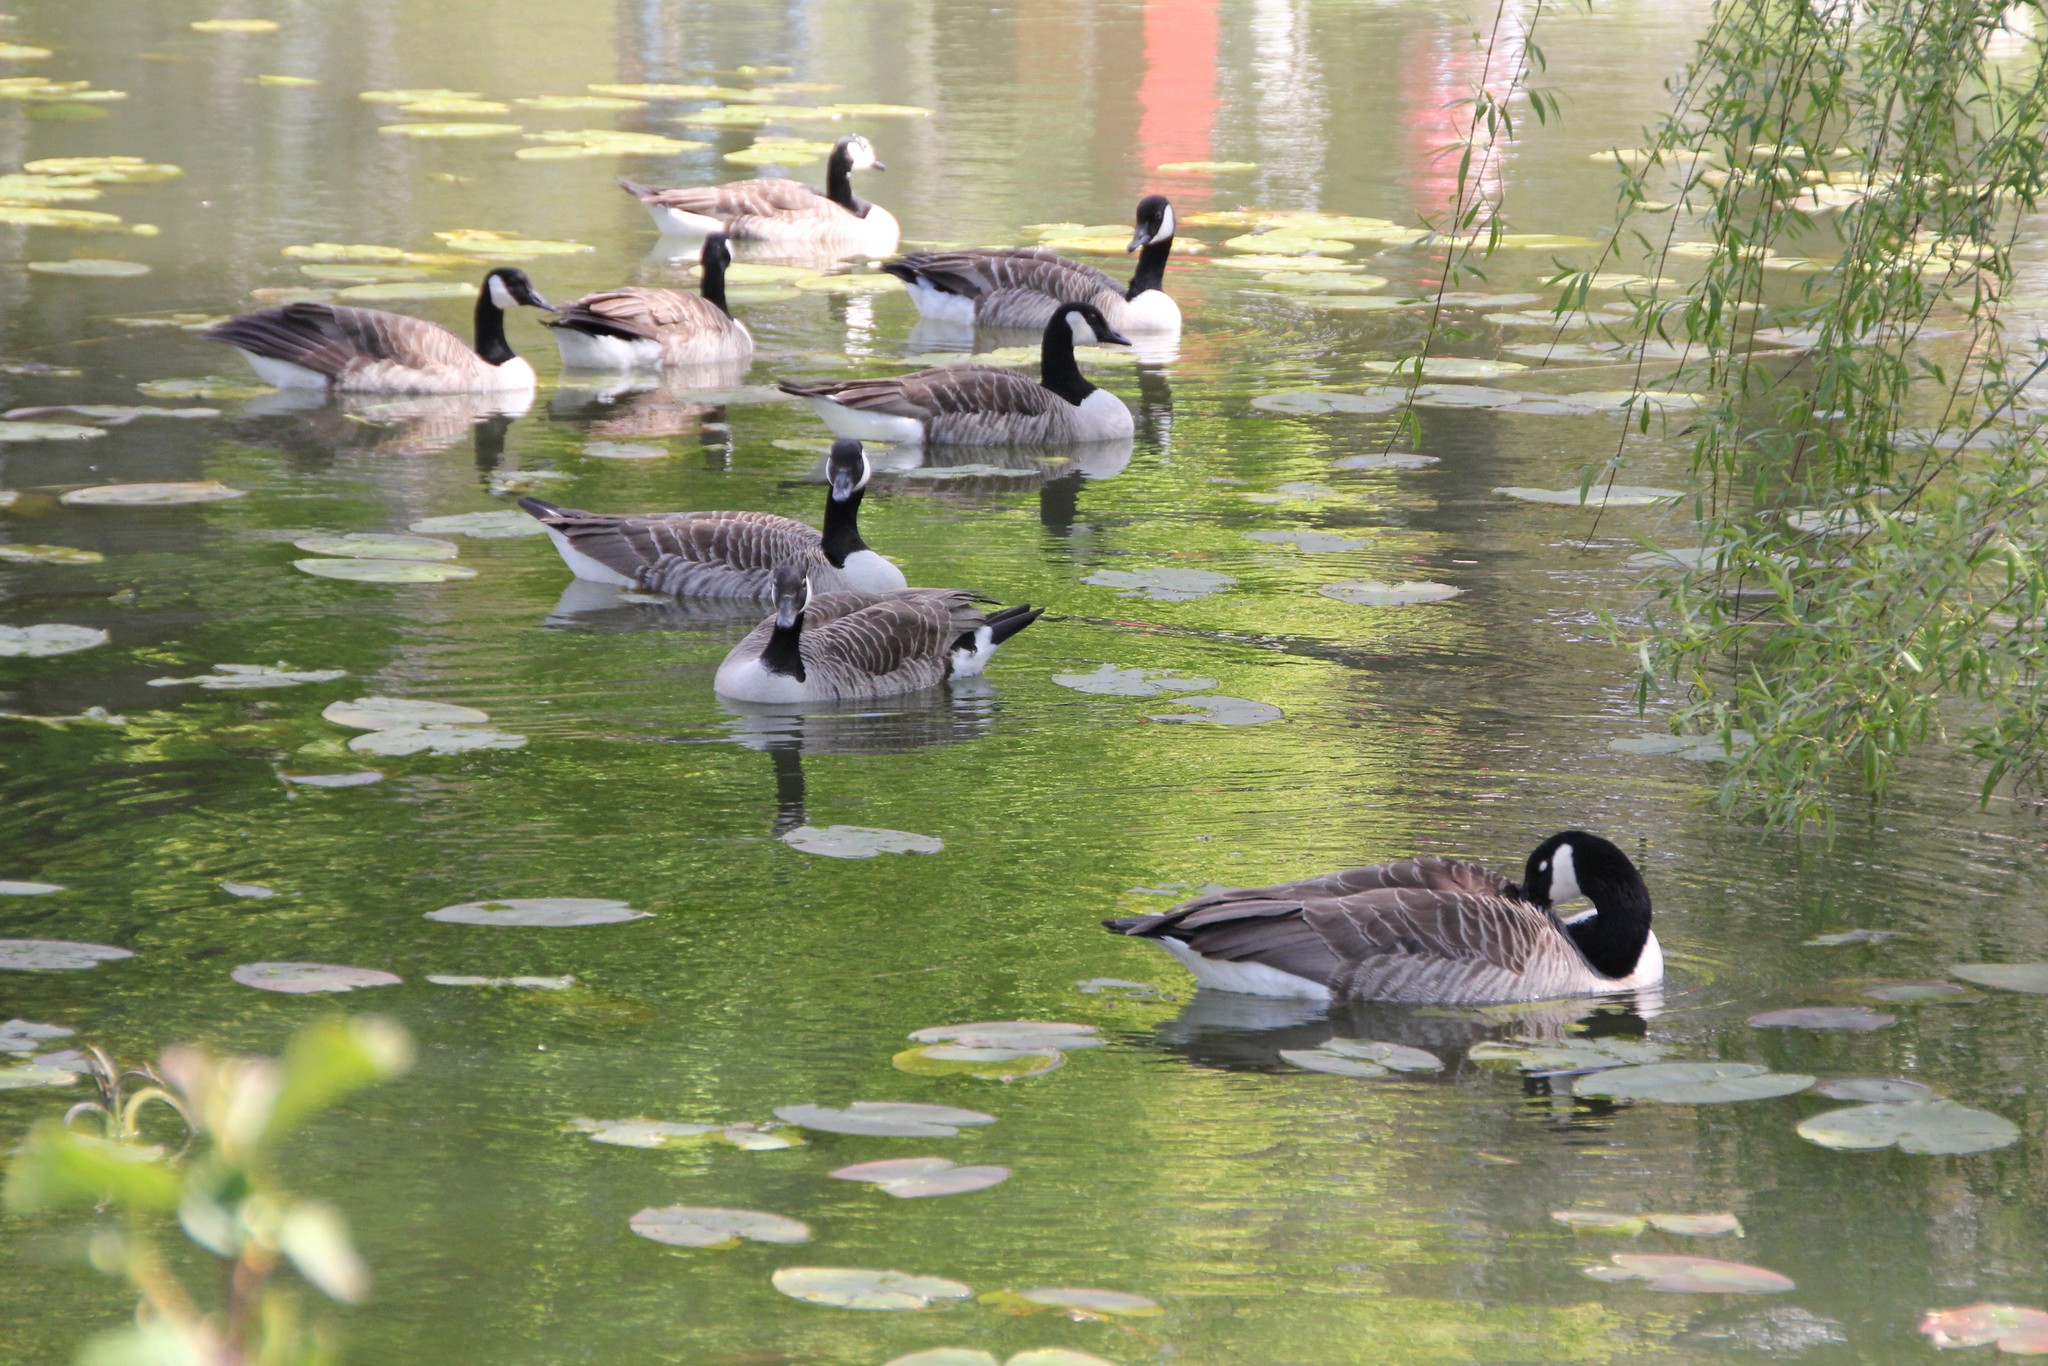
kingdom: Animalia
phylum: Chordata
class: Aves
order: Anseriformes
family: Anatidae
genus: Branta
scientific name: Branta canadensis
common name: Canada goose
